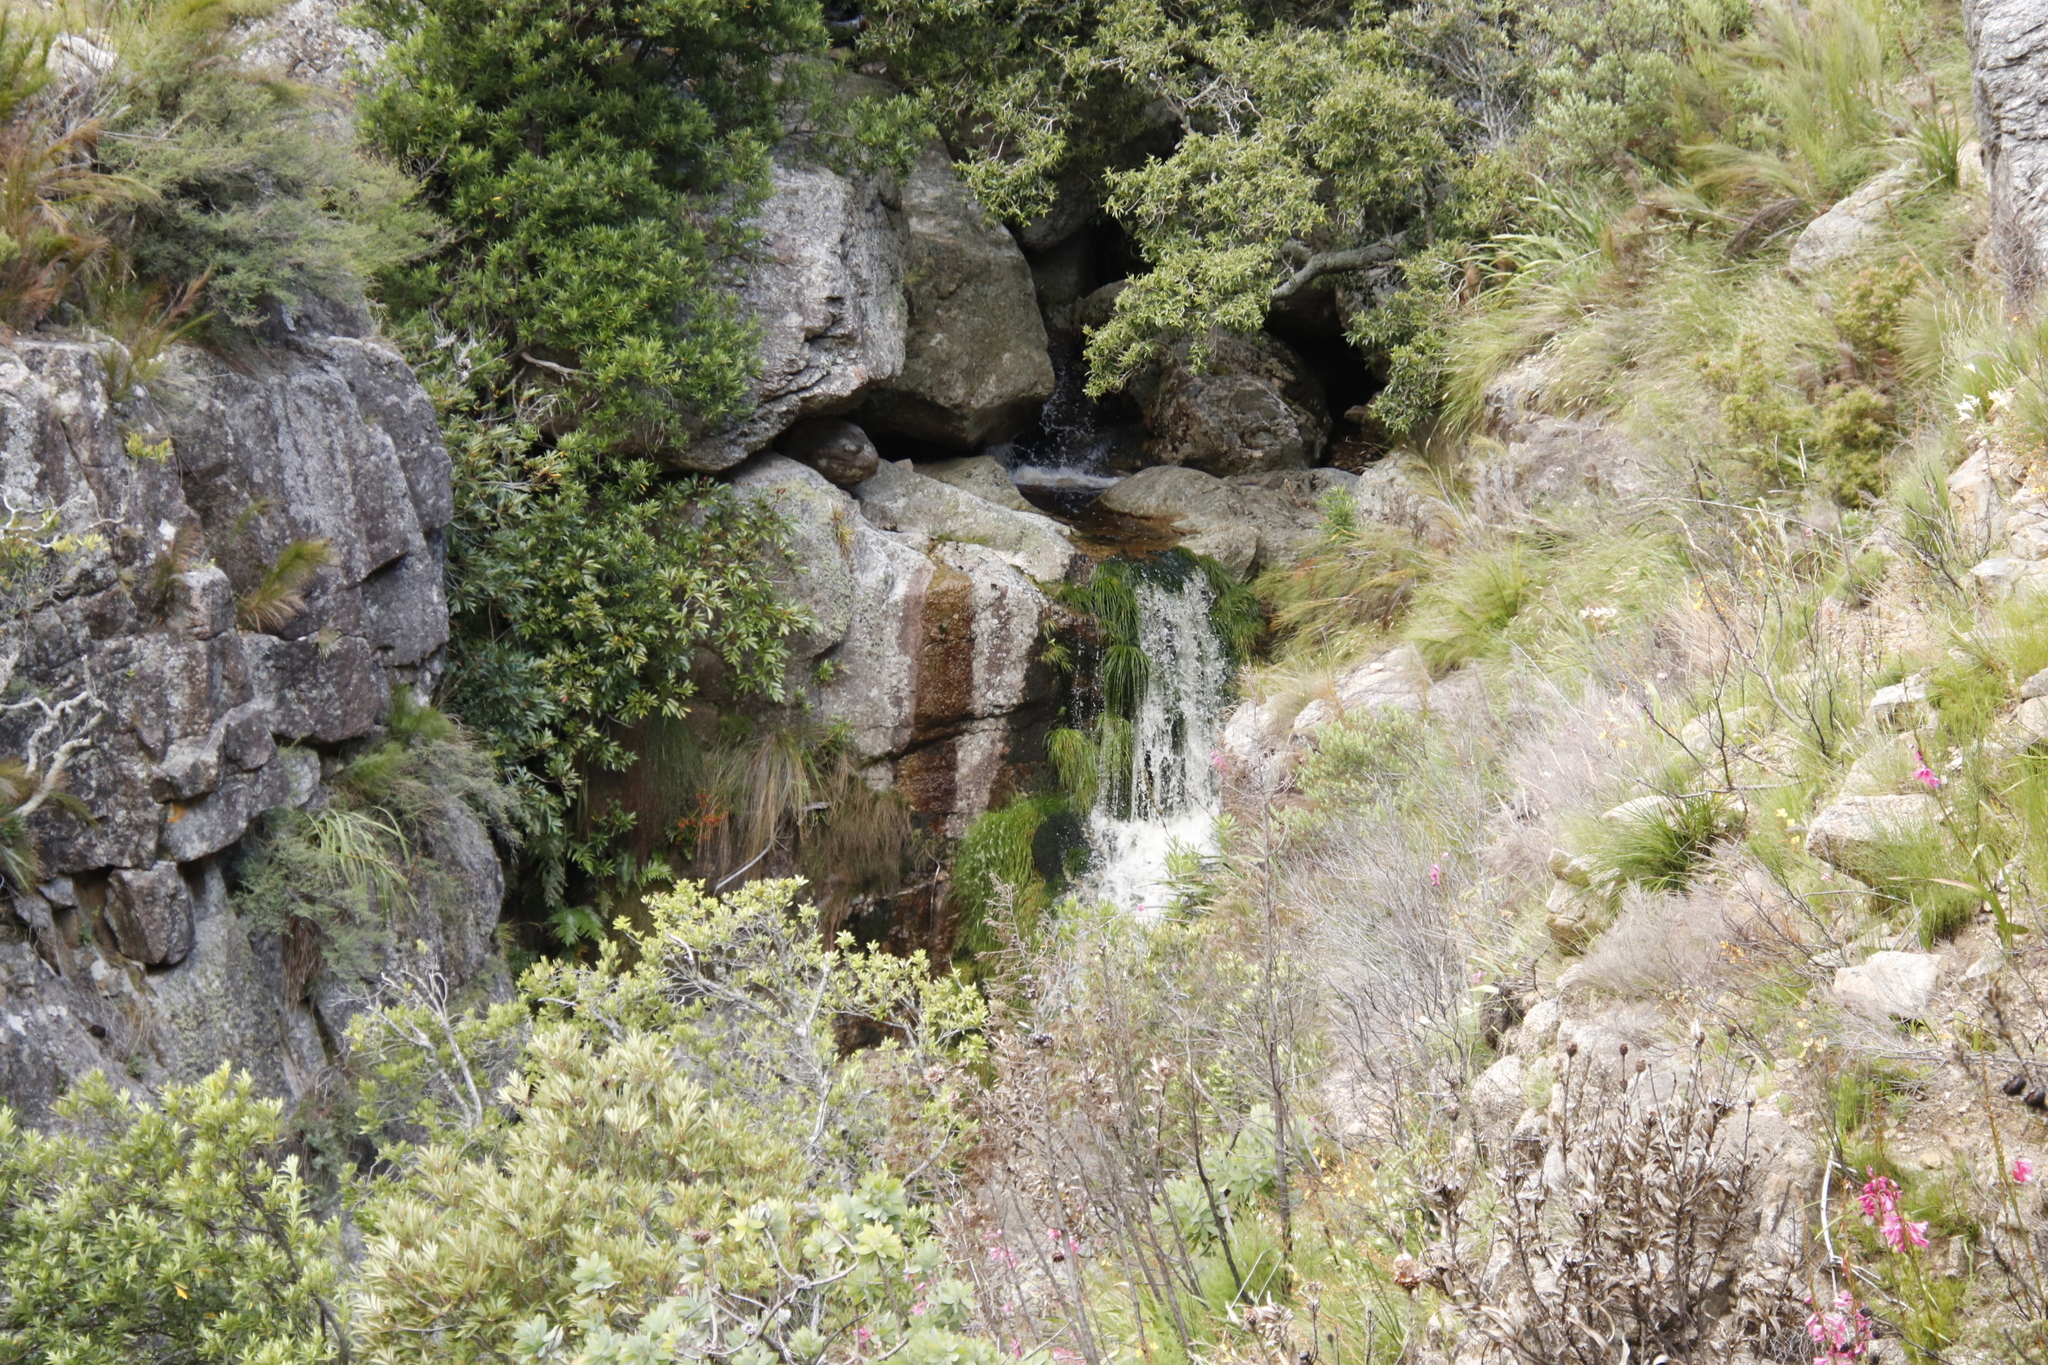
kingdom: Plantae
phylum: Tracheophyta
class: Liliopsida
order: Poales
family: Cyperaceae
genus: Isolepis
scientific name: Isolepis digitata
